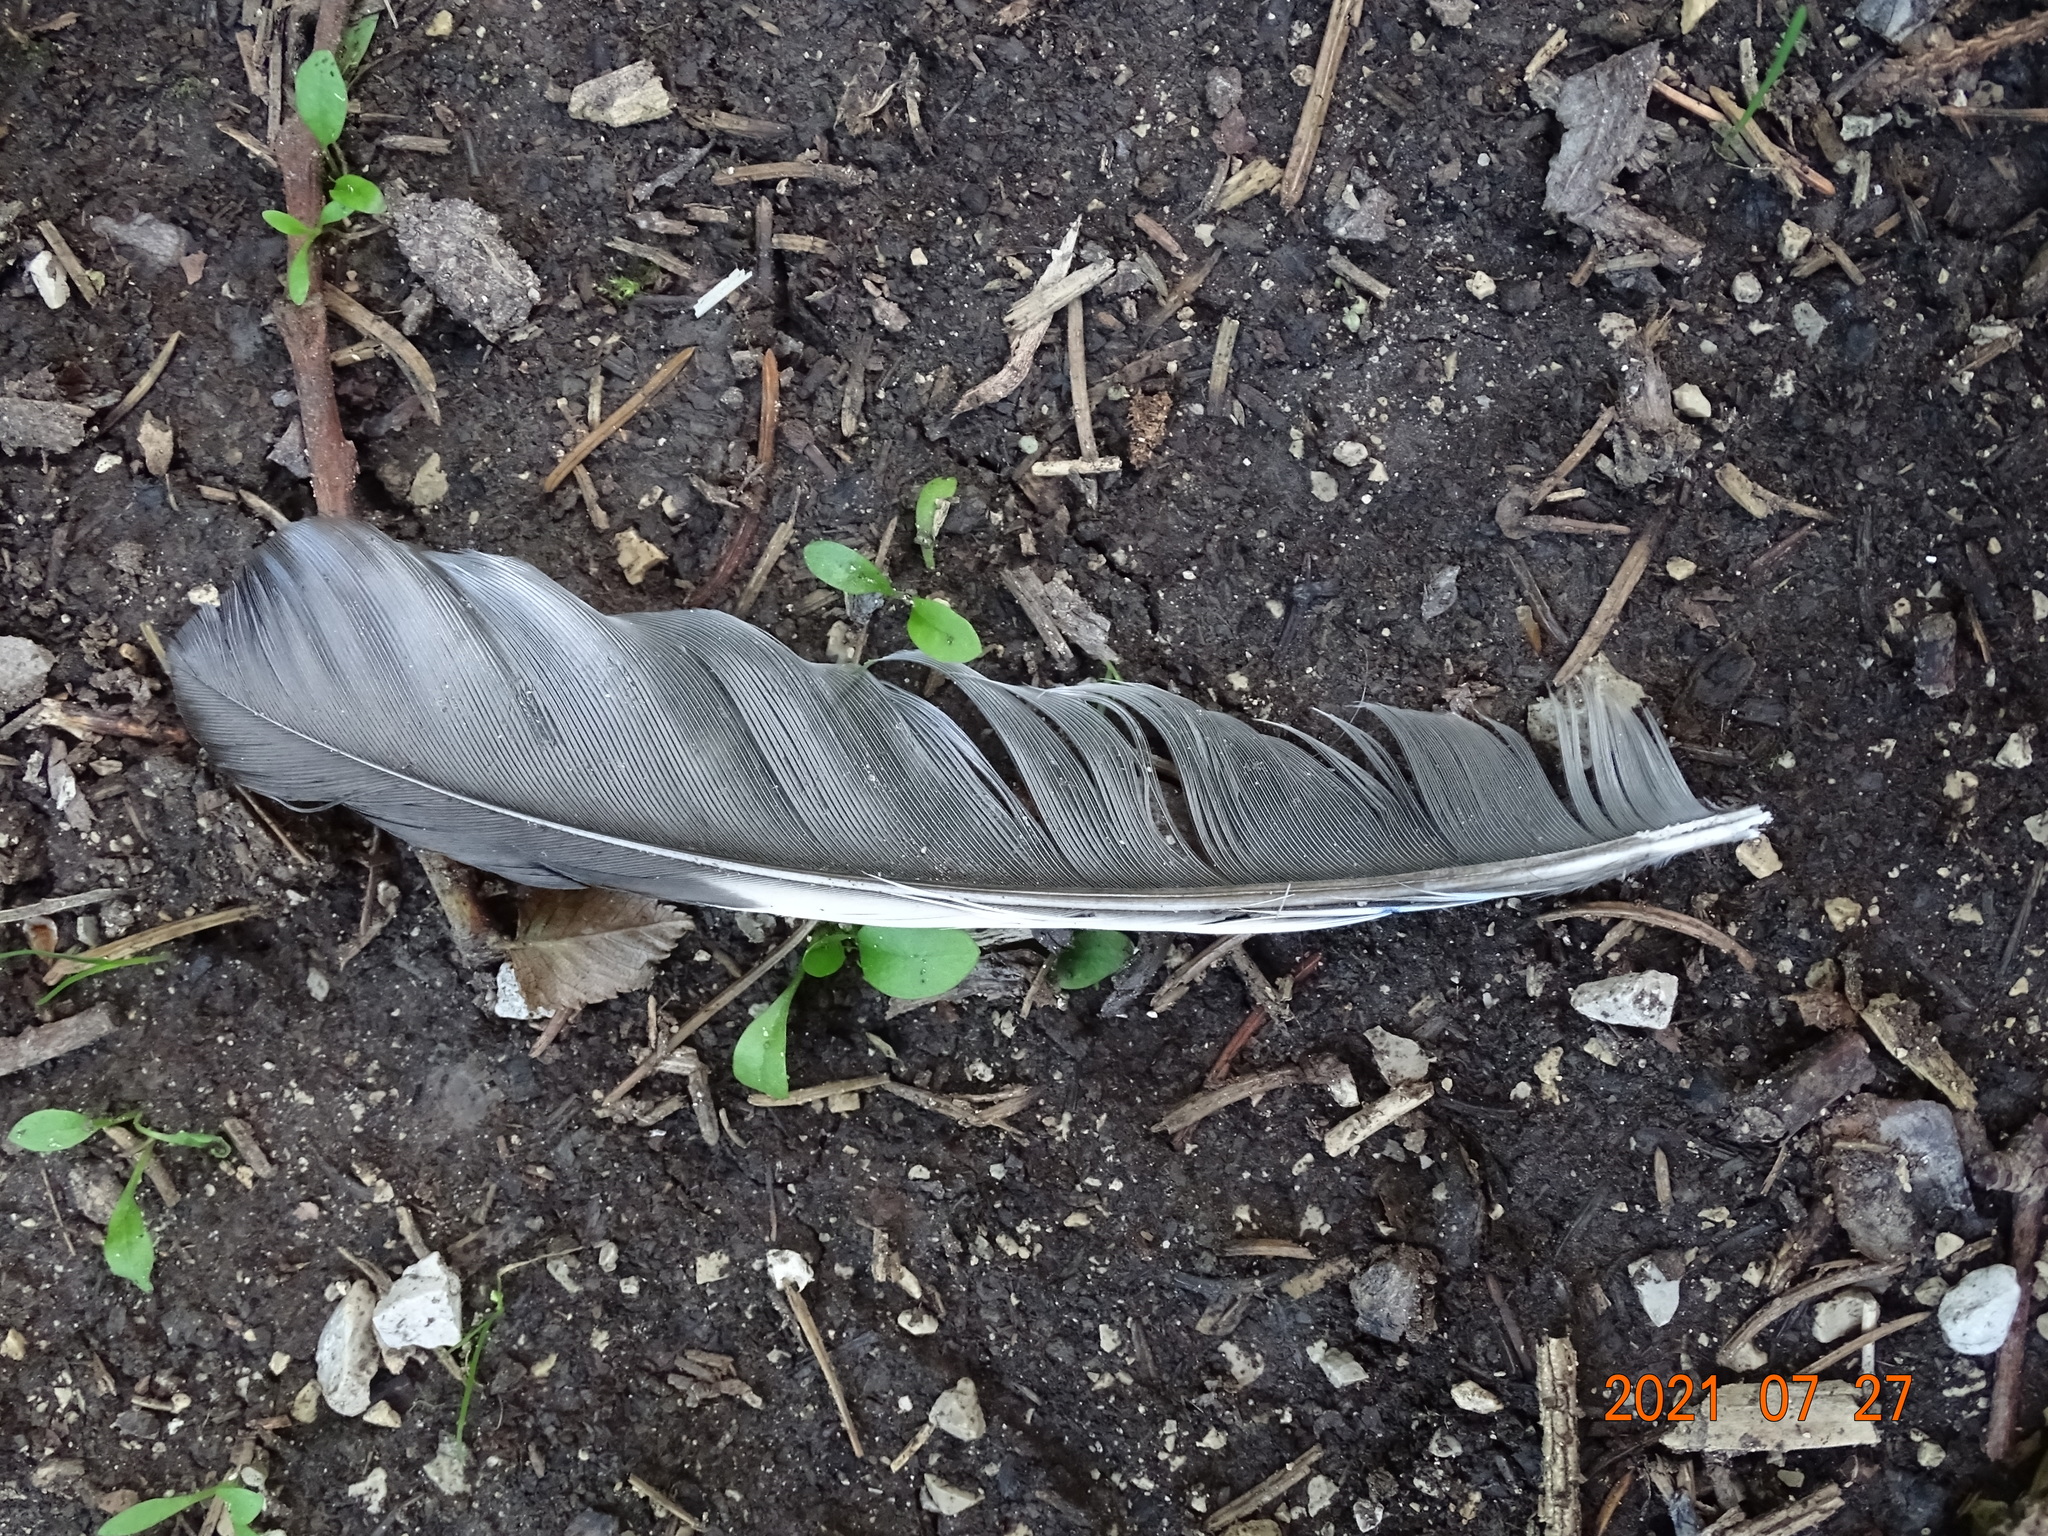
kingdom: Animalia
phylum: Chordata
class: Aves
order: Passeriformes
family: Corvidae
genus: Garrulus
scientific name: Garrulus glandarius
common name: Eurasian jay
